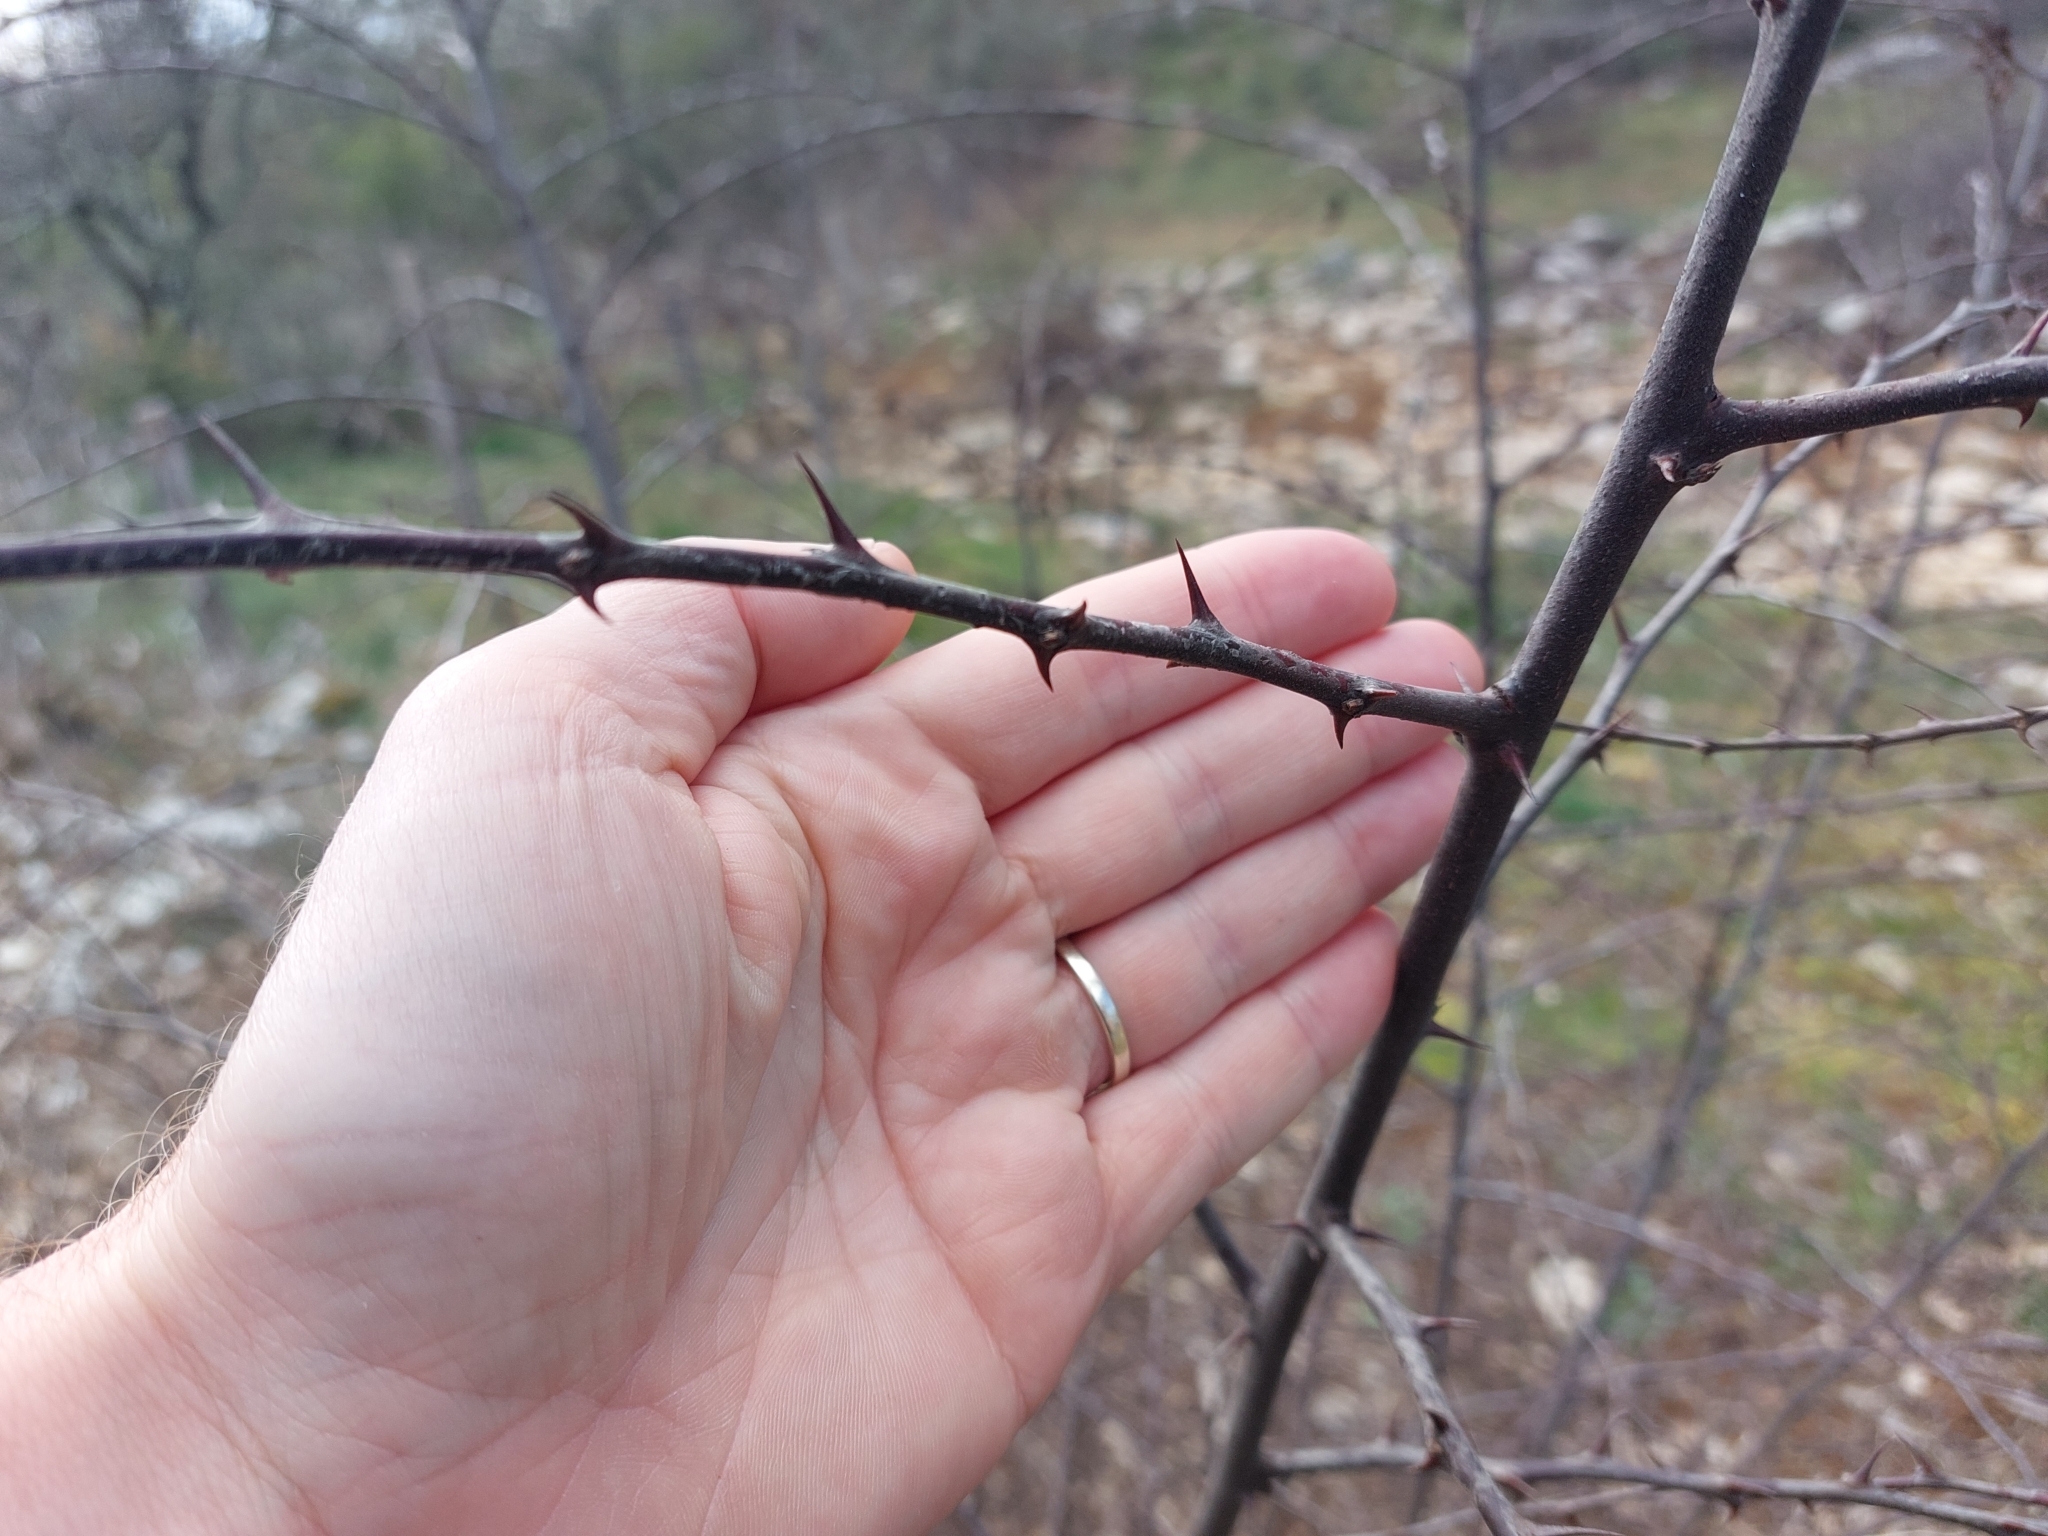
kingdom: Plantae
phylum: Tracheophyta
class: Magnoliopsida
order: Rosales
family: Rhamnaceae
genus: Paliurus
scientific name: Paliurus spina-christi
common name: Jeruselem thorn
